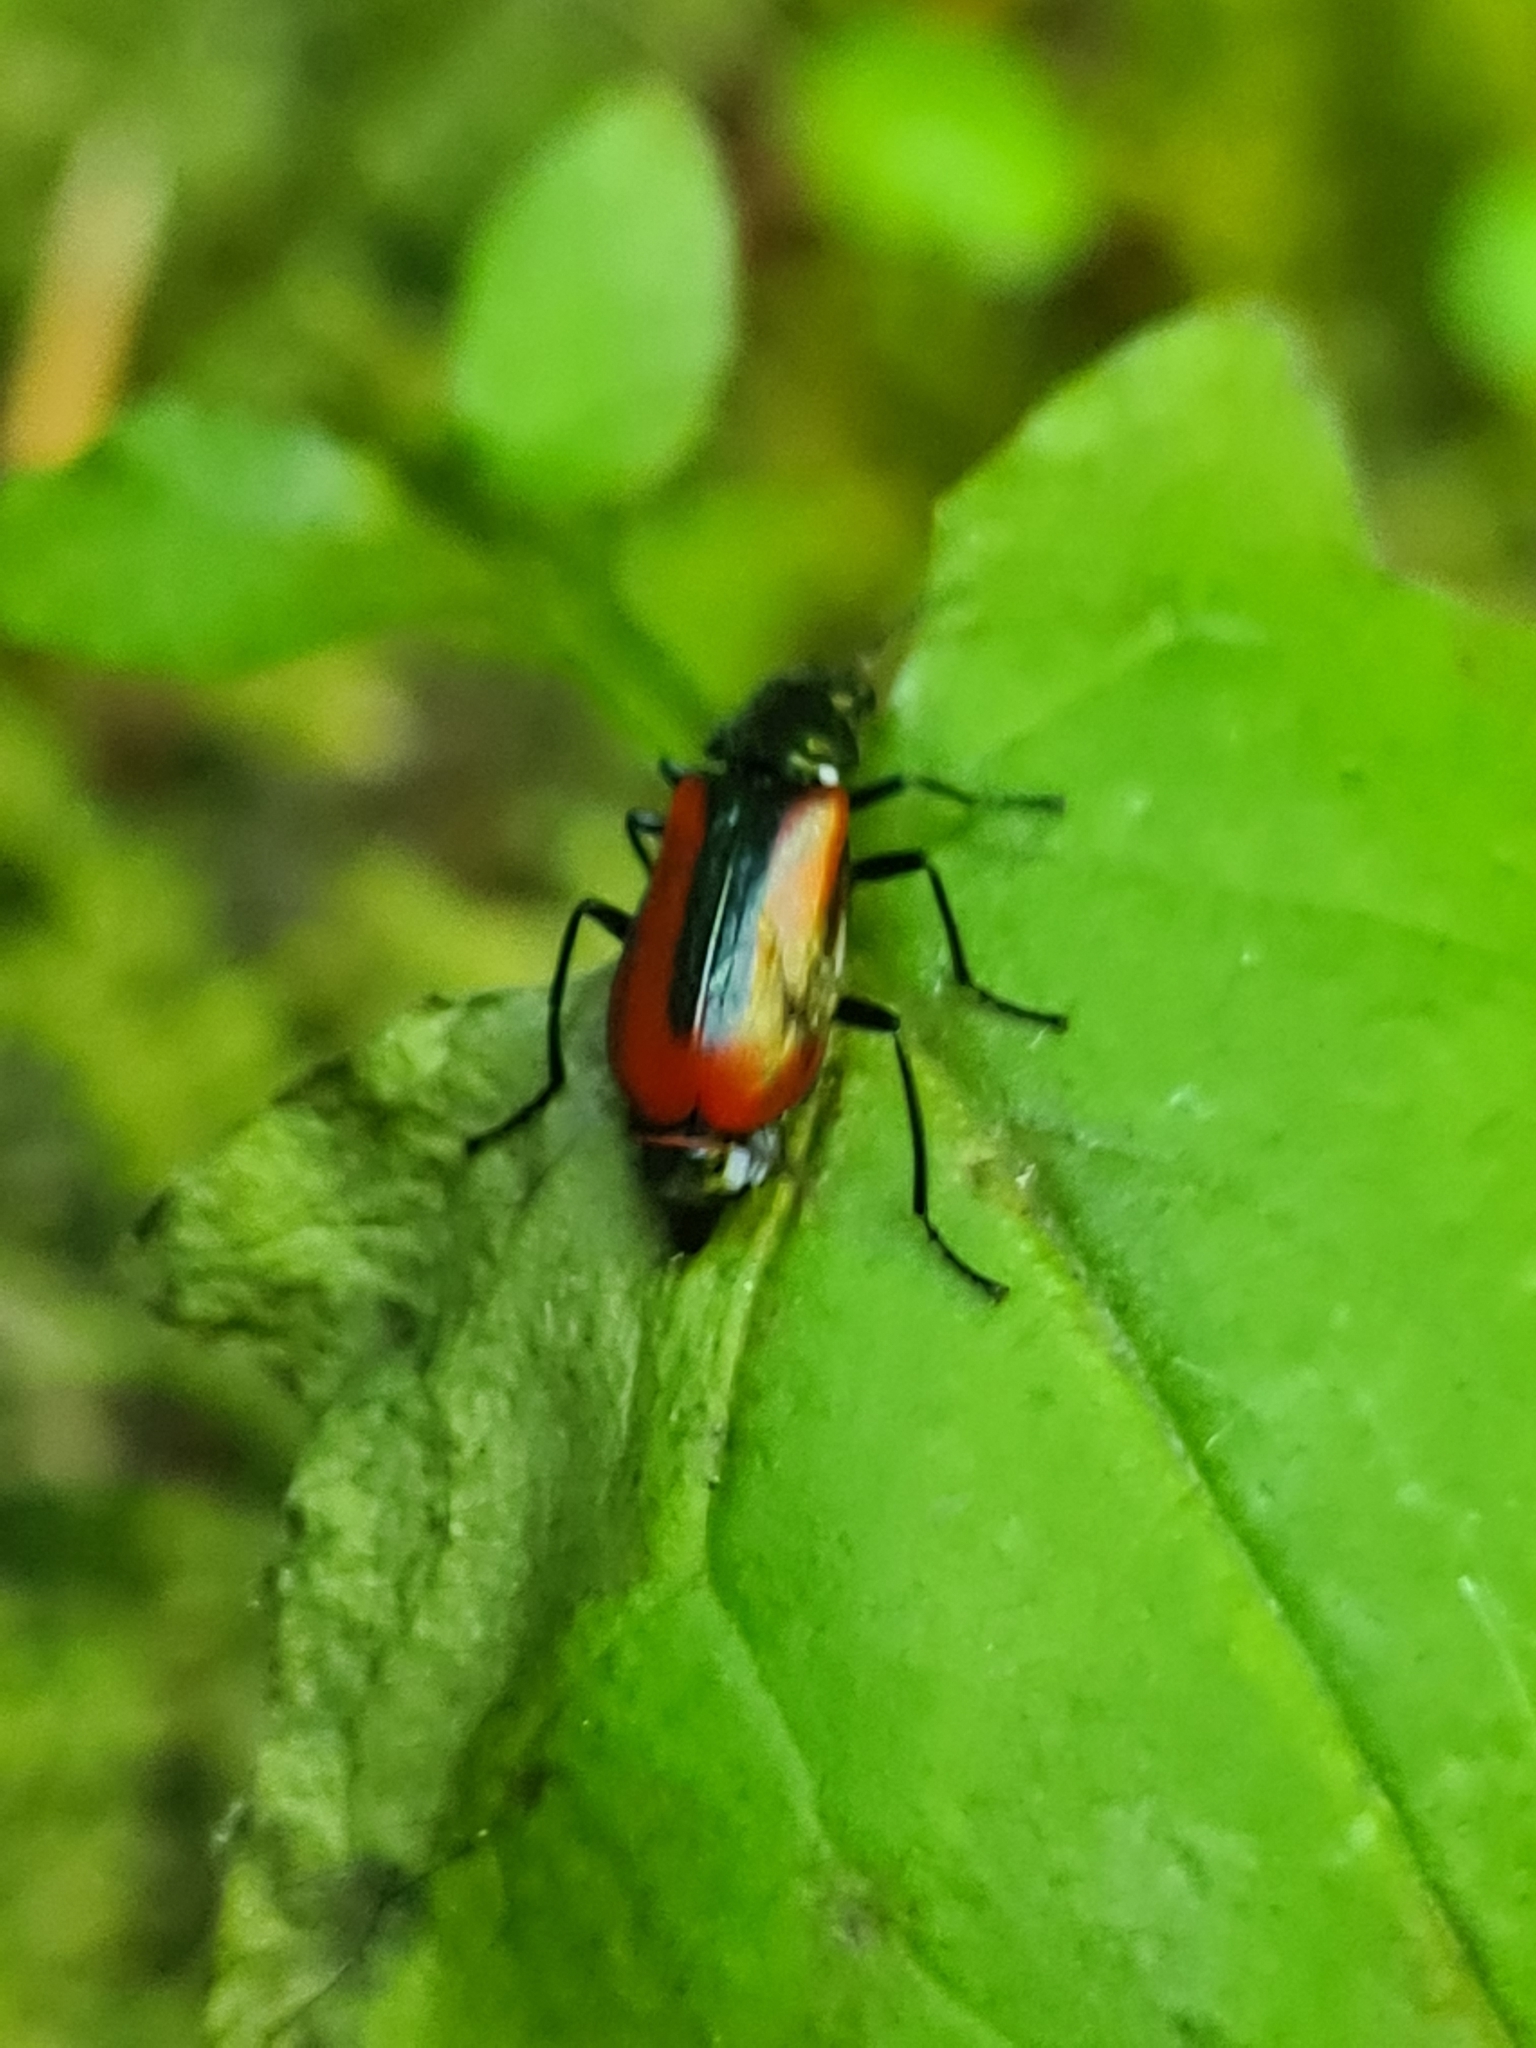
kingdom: Animalia
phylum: Arthropoda
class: Insecta
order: Coleoptera
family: Melyridae
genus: Malachius
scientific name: Malachius rubidus
